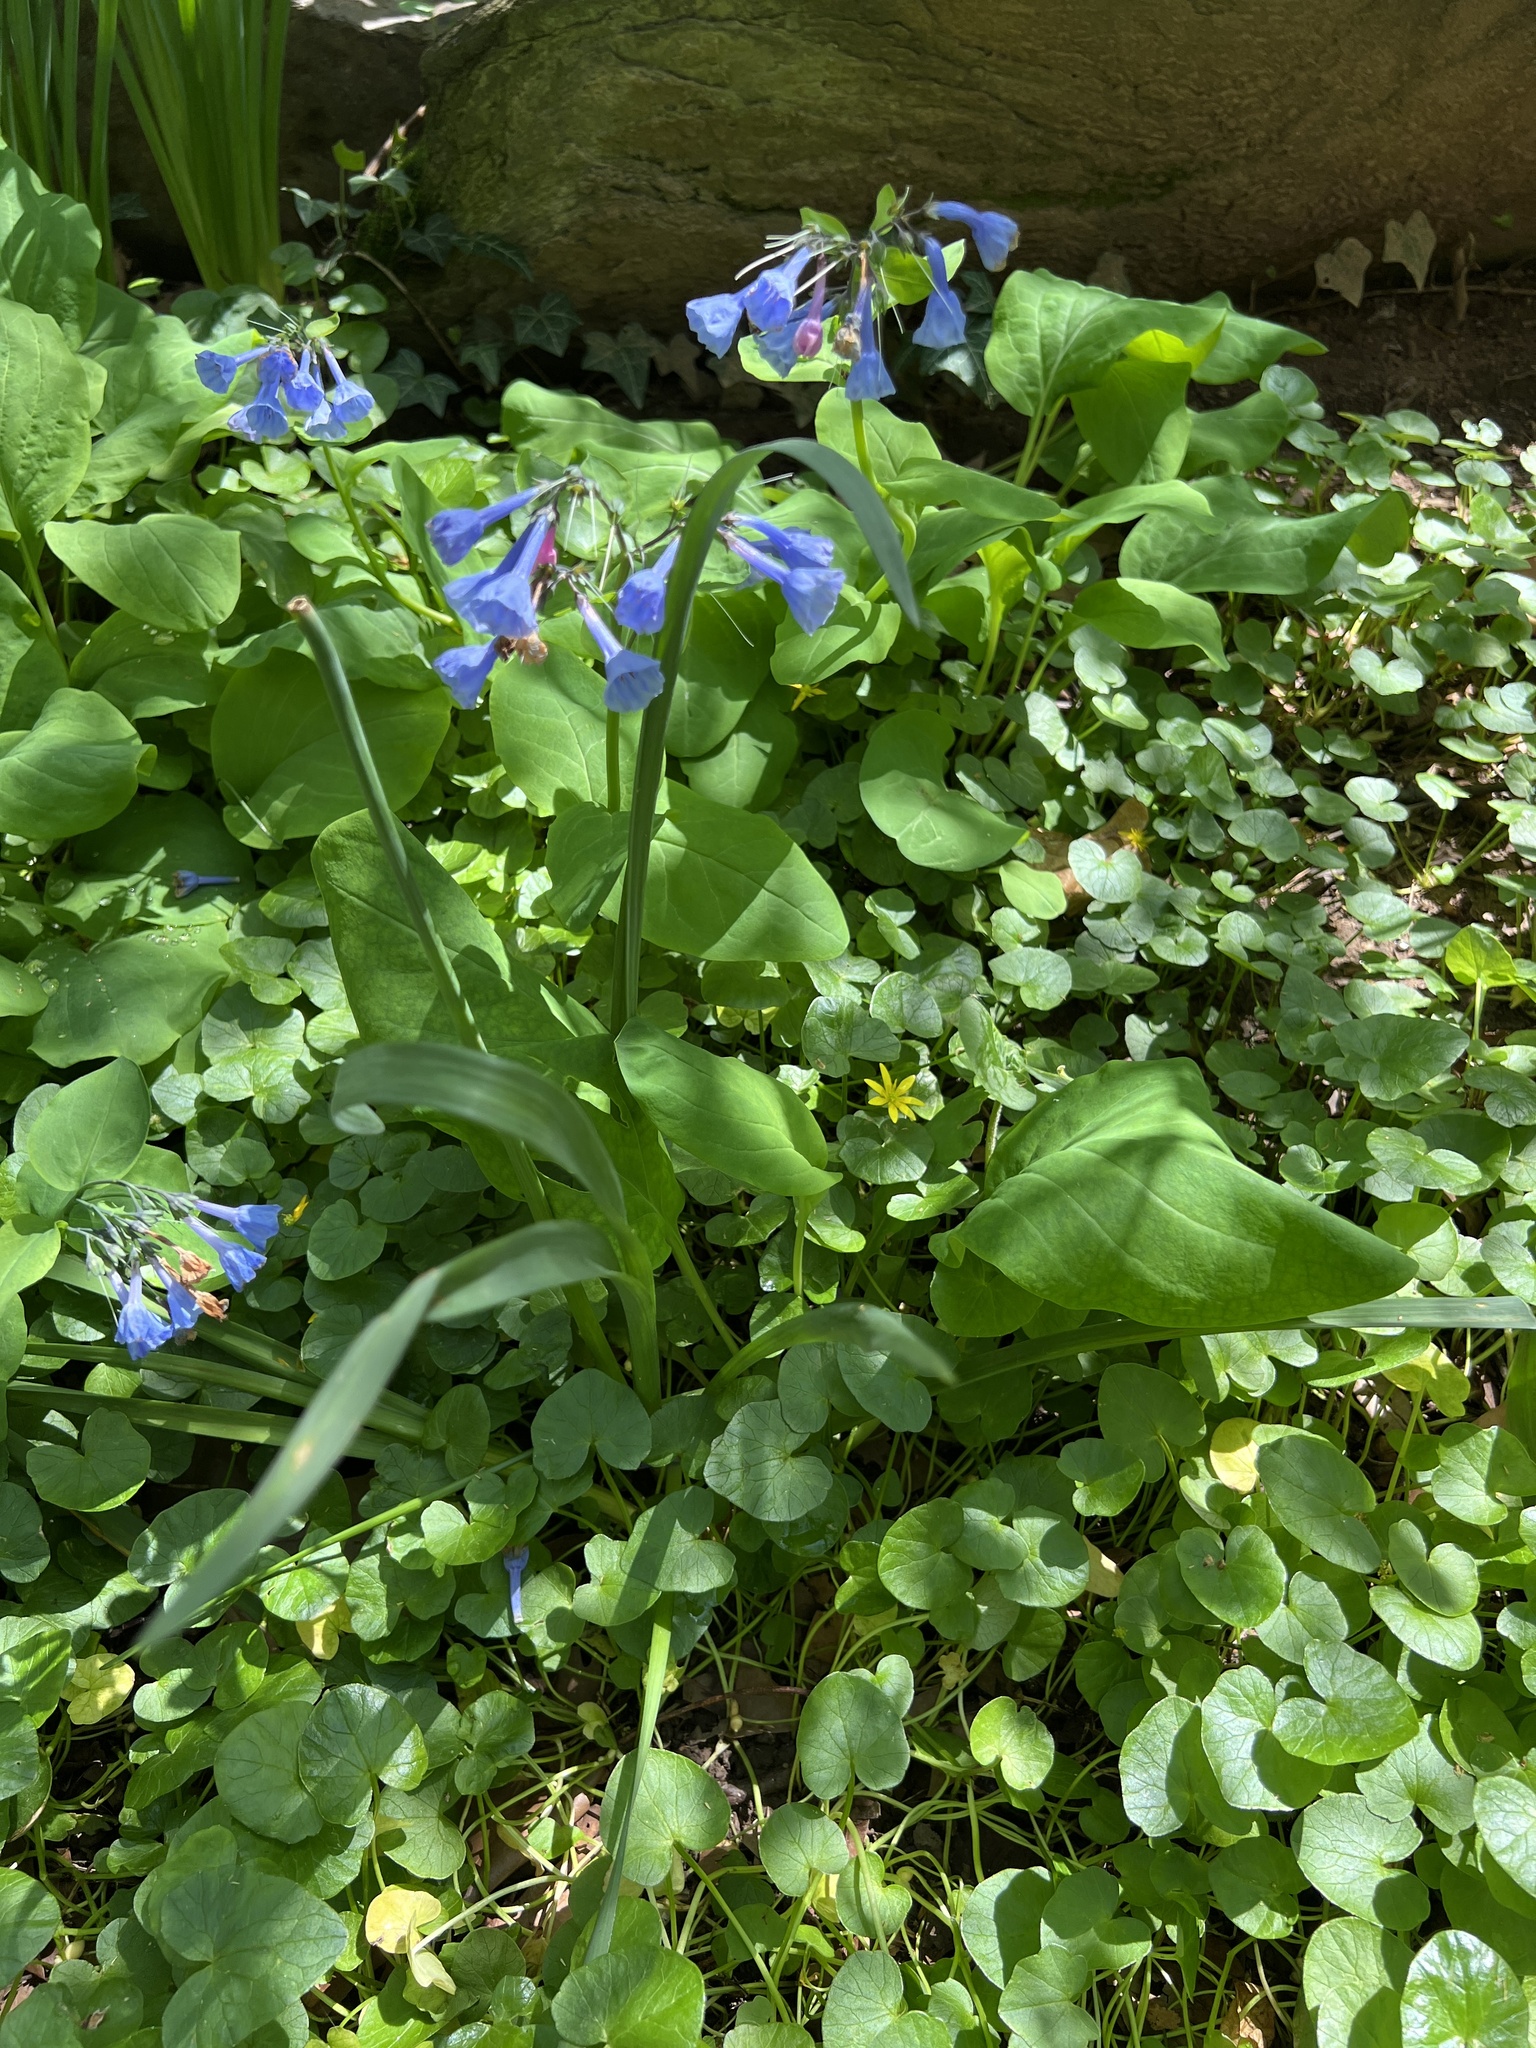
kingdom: Plantae
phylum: Tracheophyta
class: Magnoliopsida
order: Ranunculales
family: Ranunculaceae
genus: Ficaria
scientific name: Ficaria verna
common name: Lesser celandine
